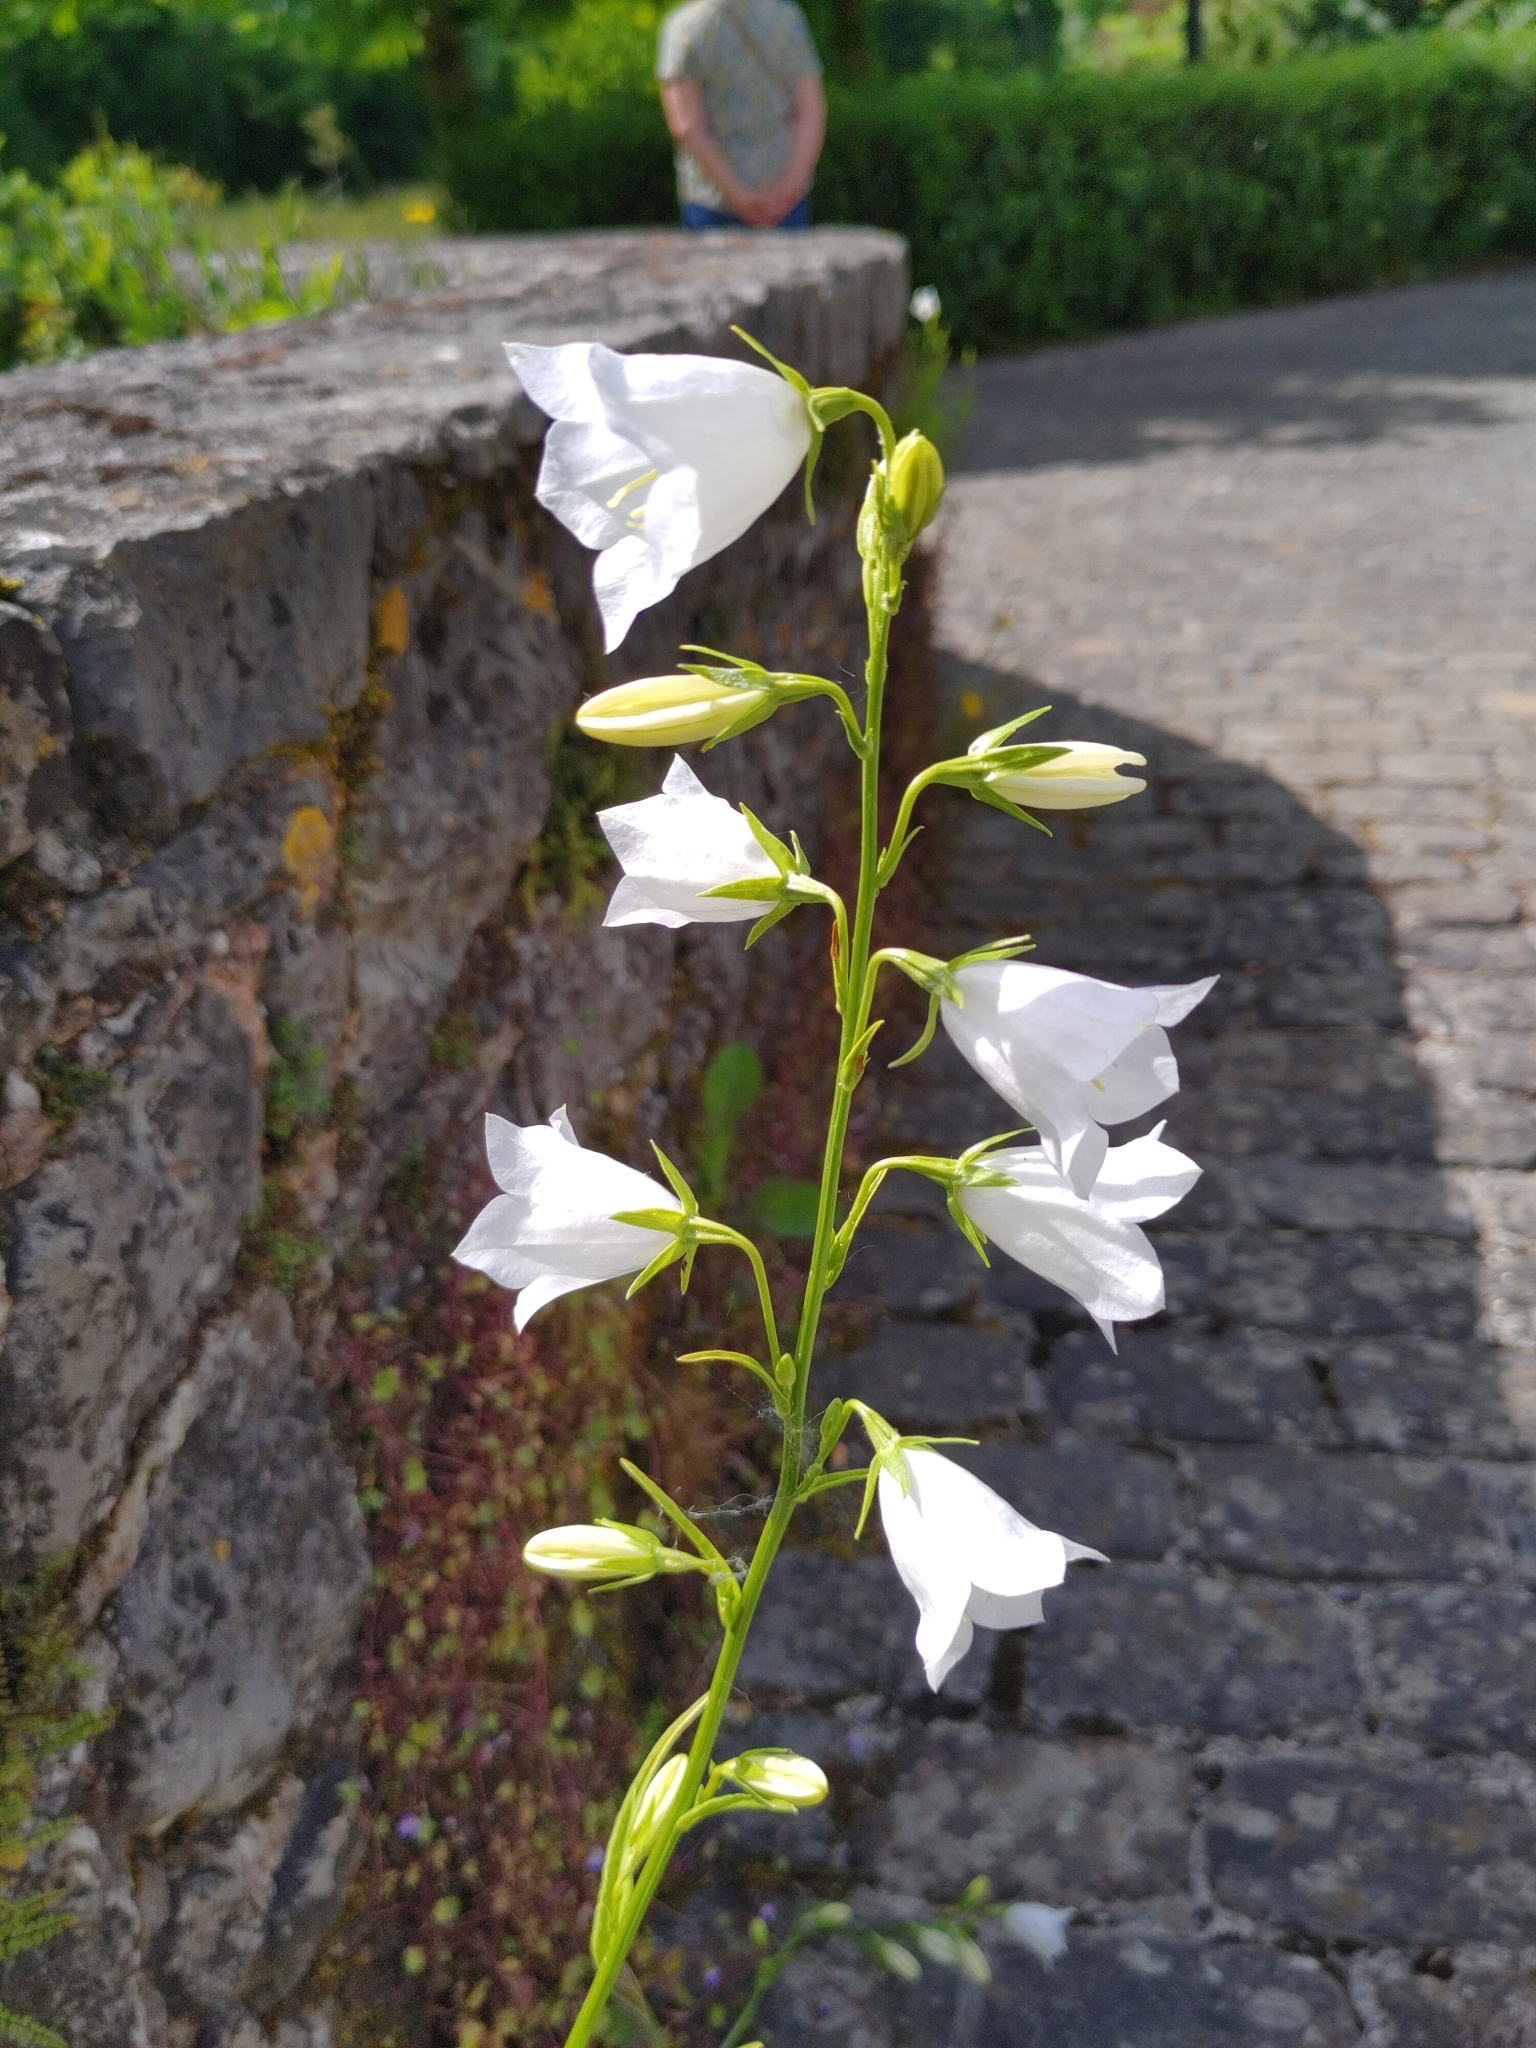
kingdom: Plantae
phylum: Tracheophyta
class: Magnoliopsida
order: Asterales
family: Campanulaceae
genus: Campanula
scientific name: Campanula persicifolia
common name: Peach-leaved bellflower
